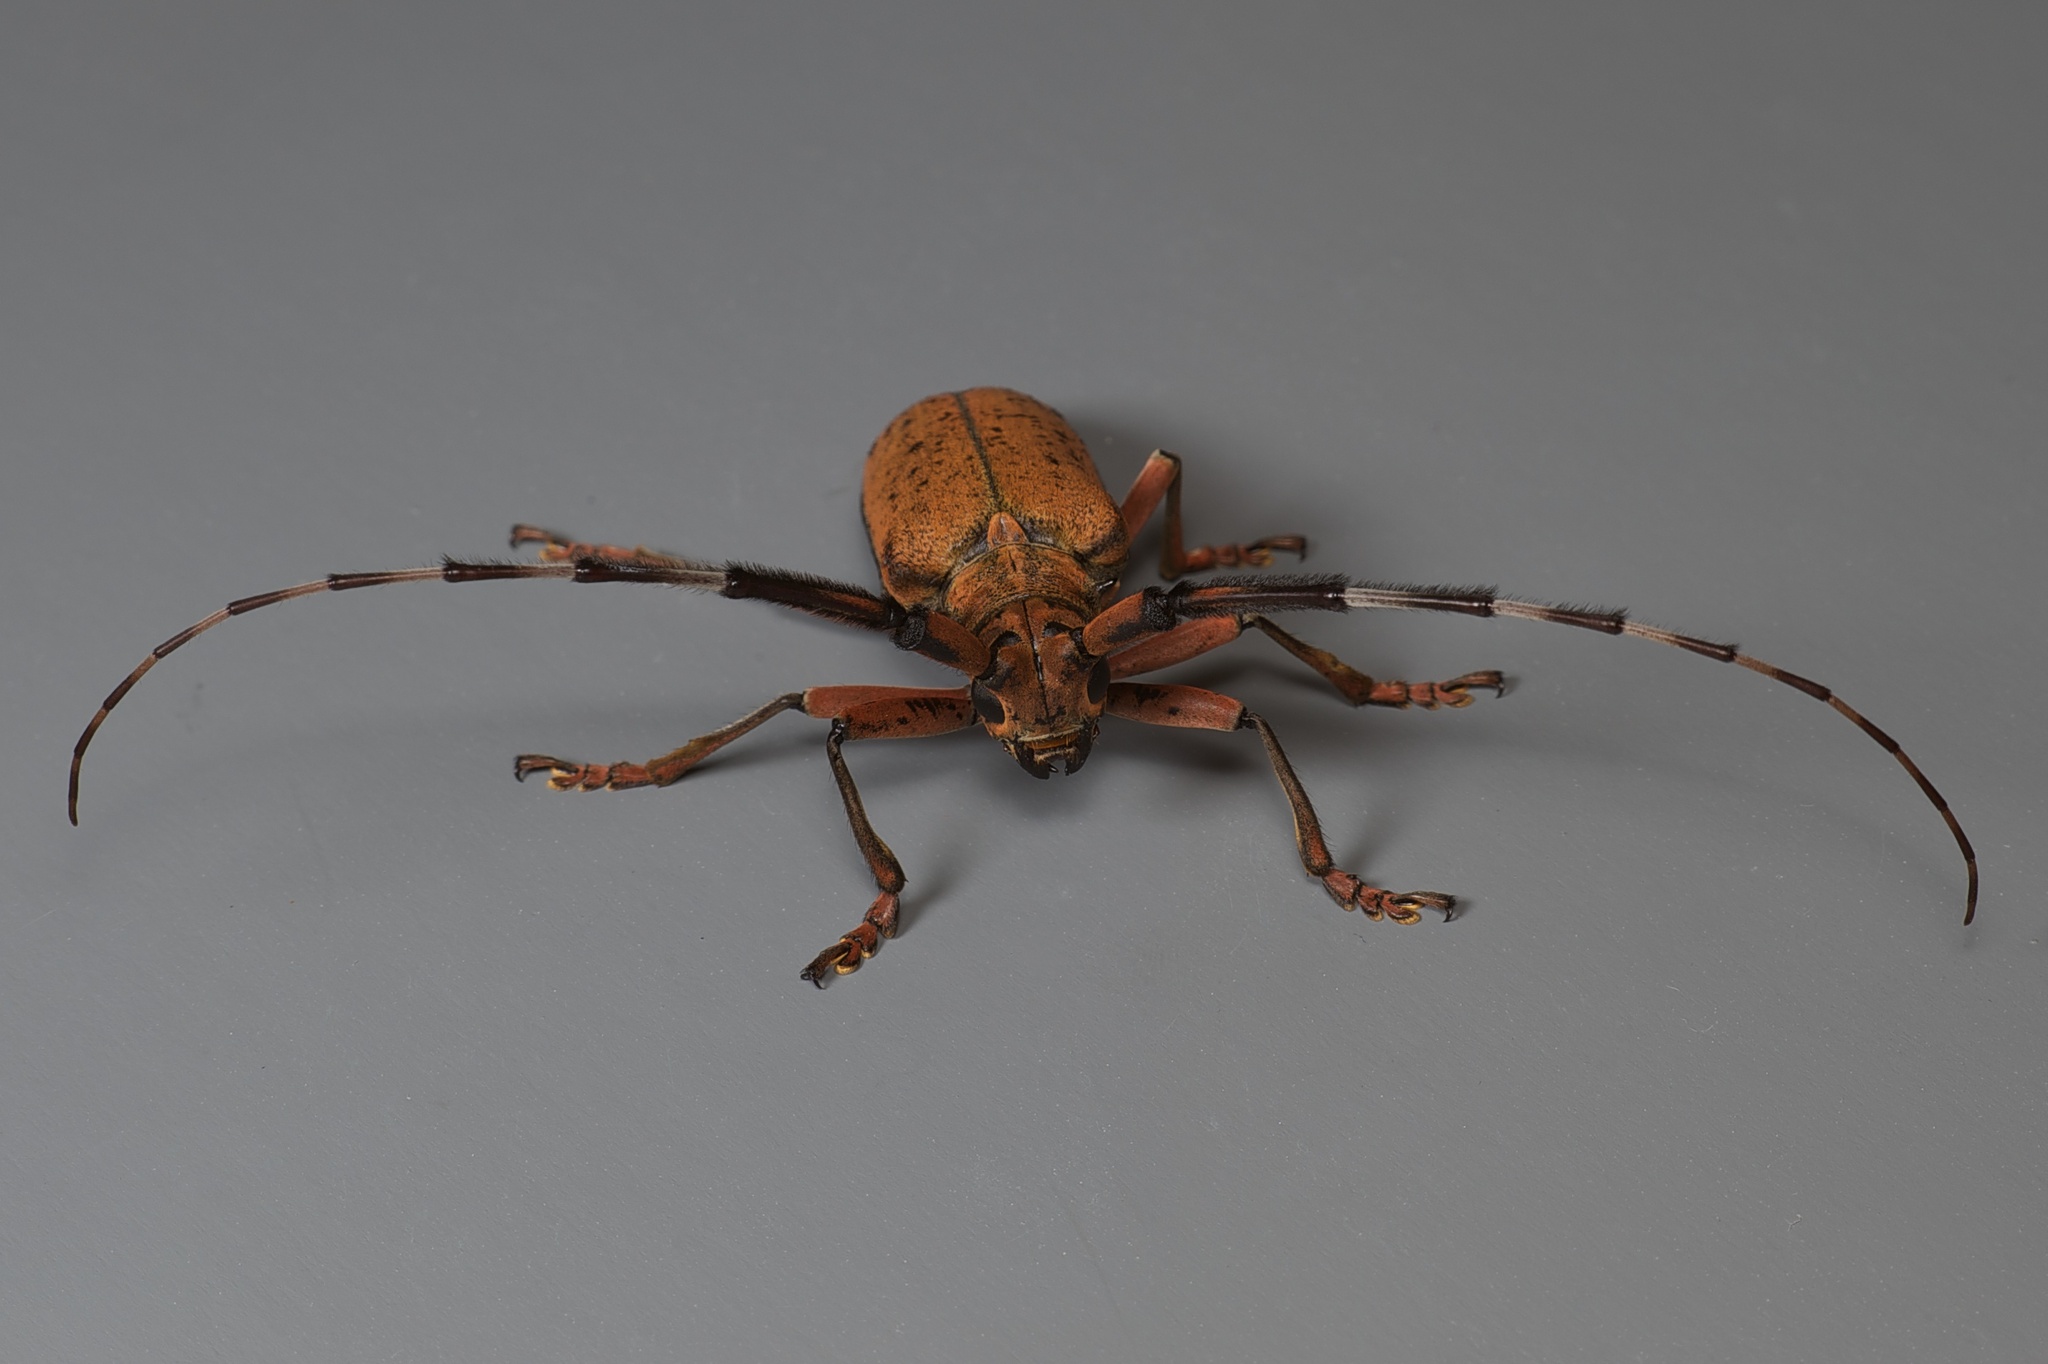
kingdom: Animalia
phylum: Arthropoda
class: Insecta
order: Coleoptera
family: Cerambycidae
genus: Mimothestus
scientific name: Mimothestus annulicornis
